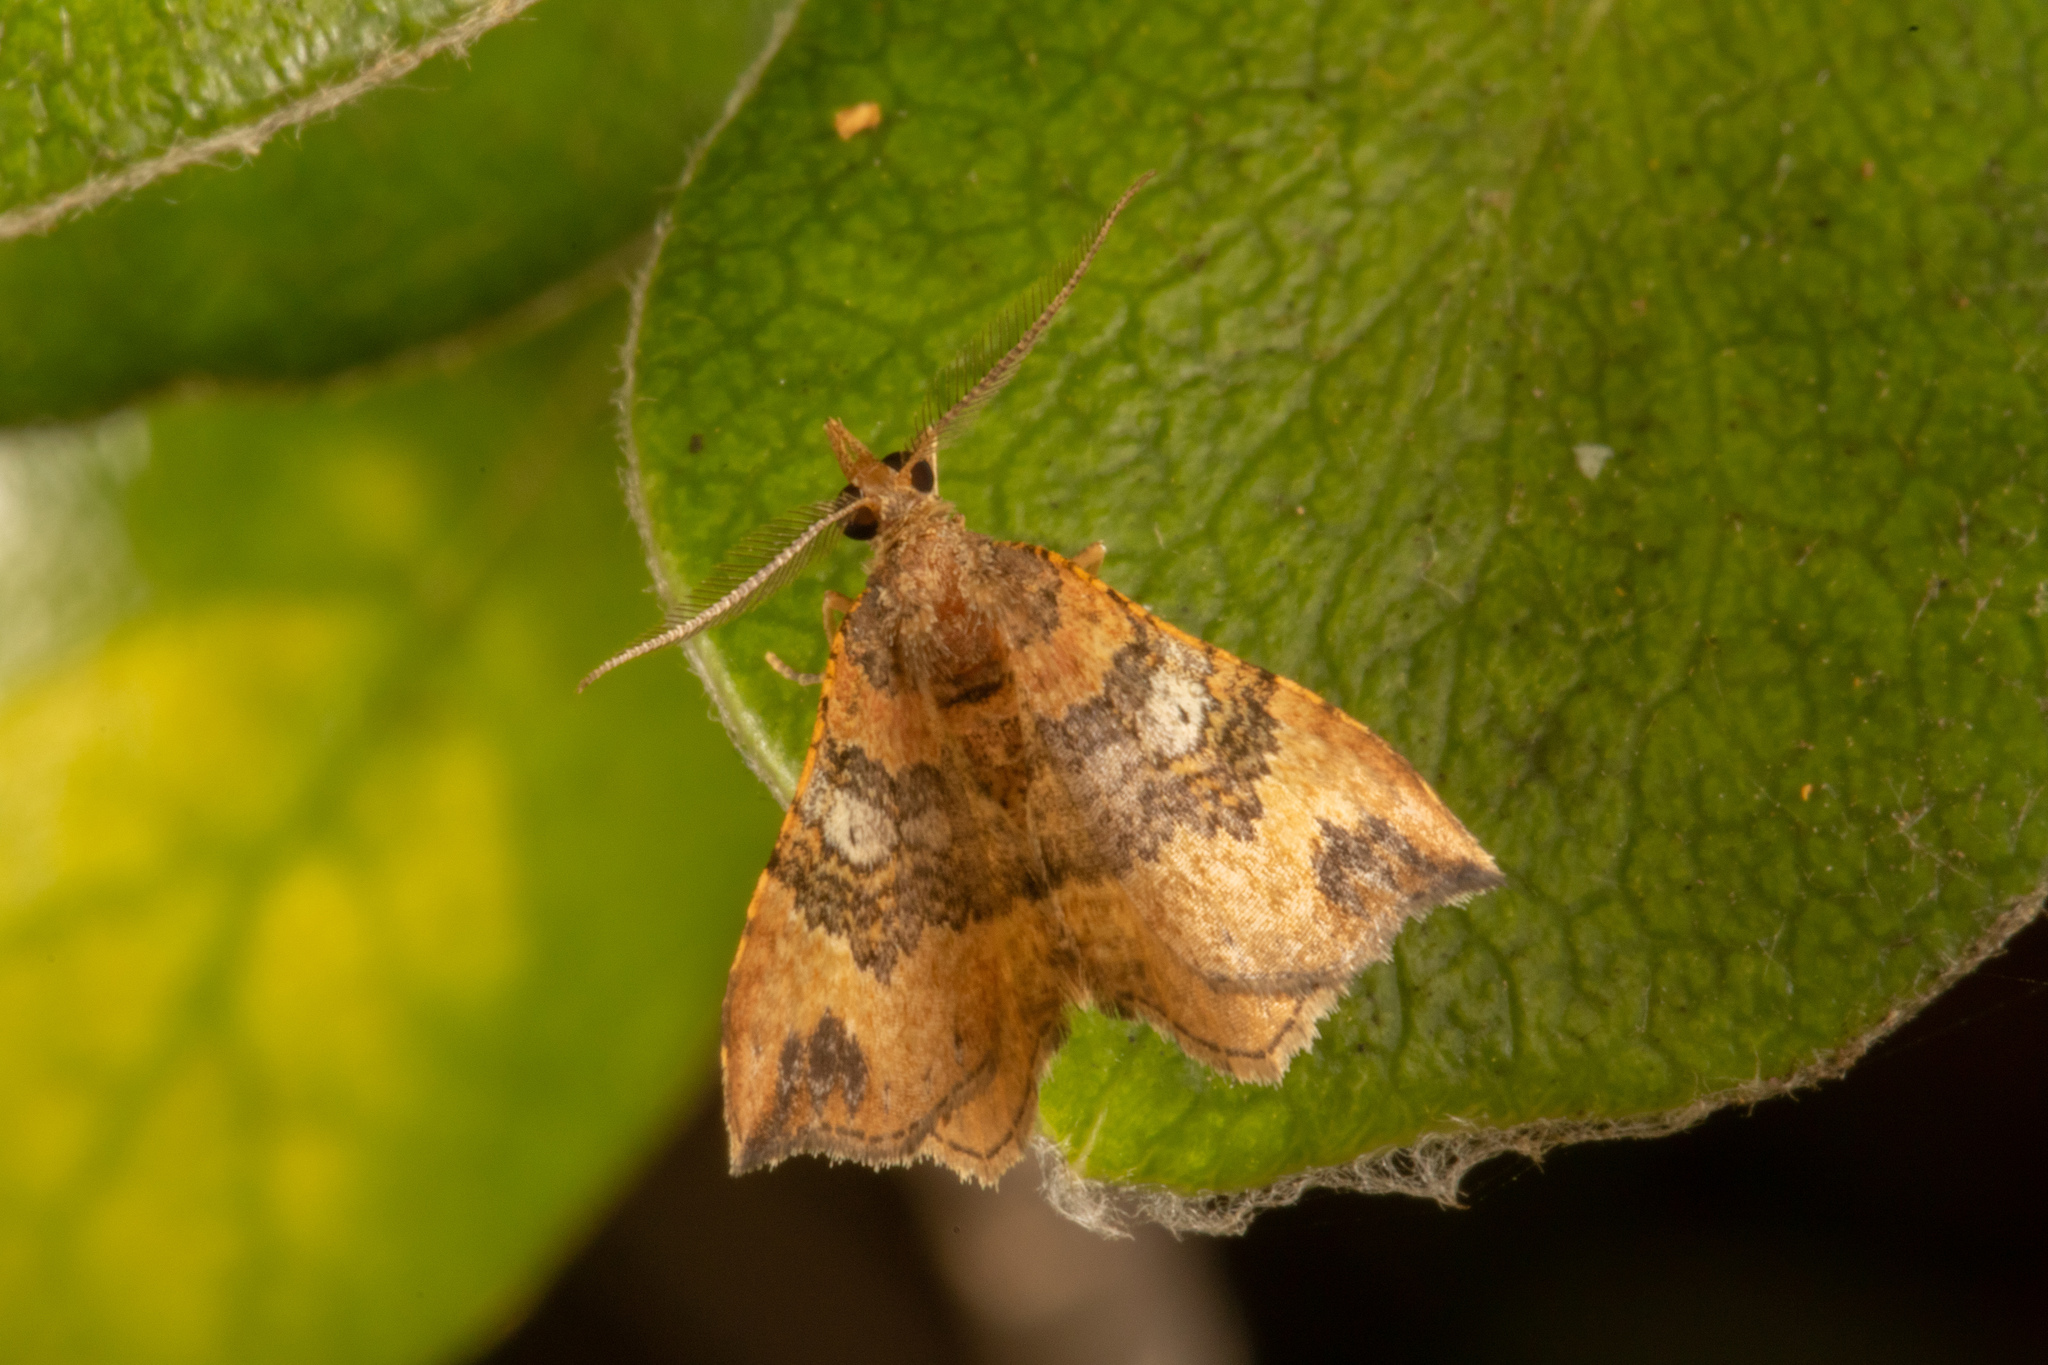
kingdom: Animalia
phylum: Arthropoda
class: Insecta
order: Lepidoptera
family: Geometridae
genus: Homodotis
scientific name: Homodotis megaspilata
